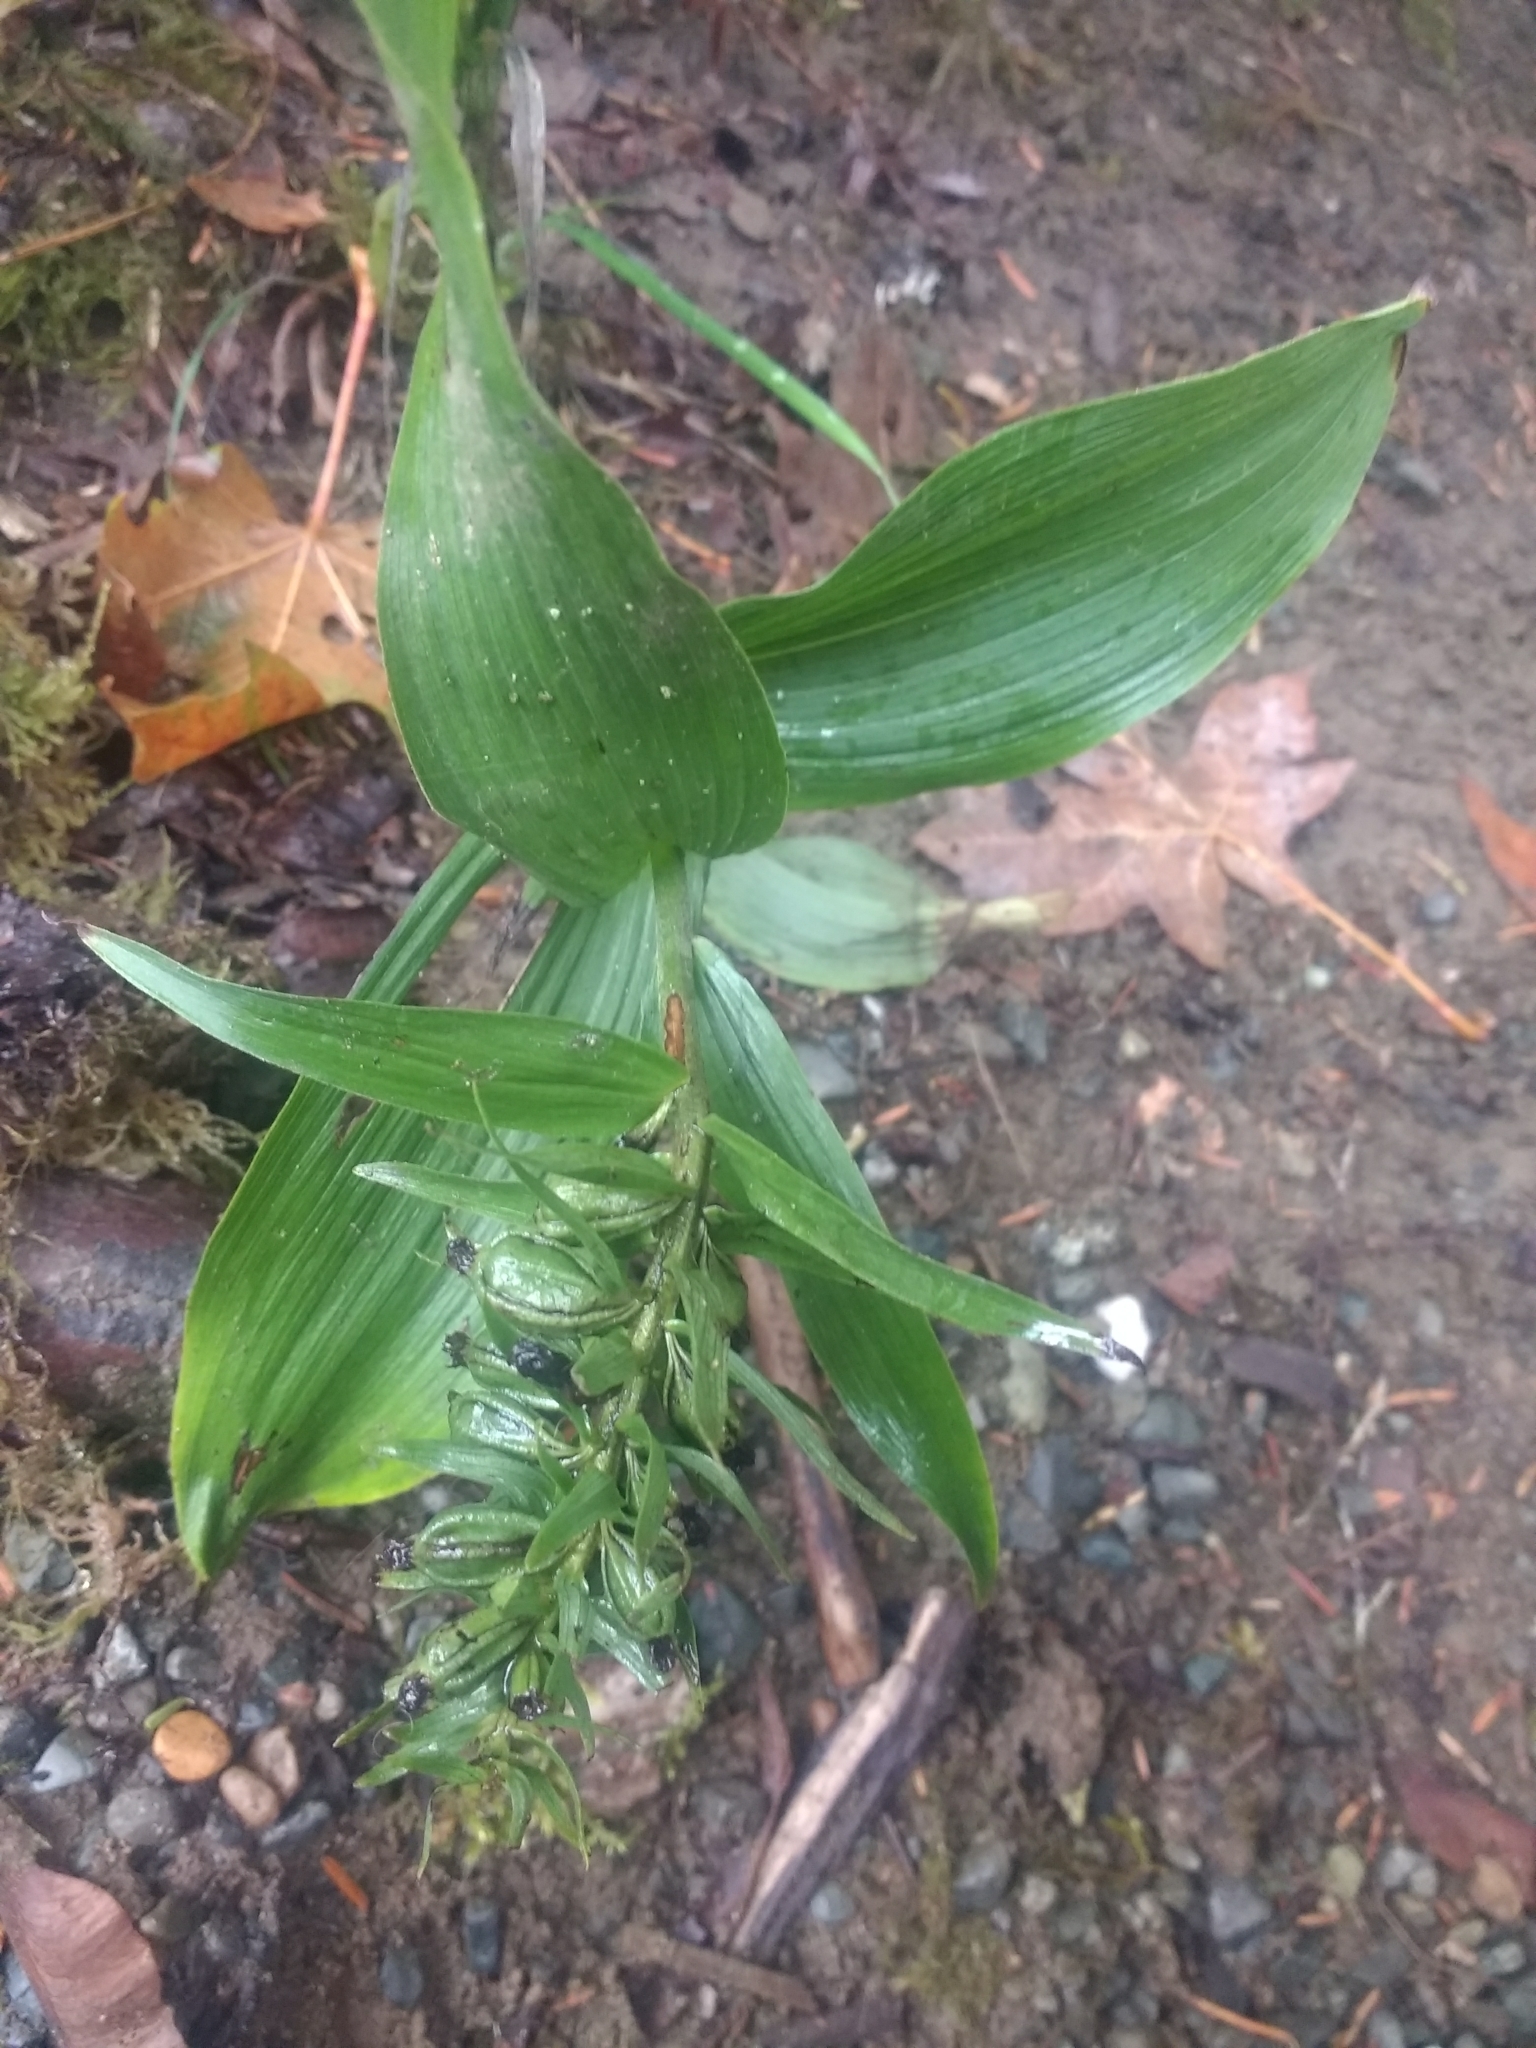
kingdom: Plantae
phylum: Tracheophyta
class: Liliopsida
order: Asparagales
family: Orchidaceae
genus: Epipactis
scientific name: Epipactis helleborine
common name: Broad-leaved helleborine
